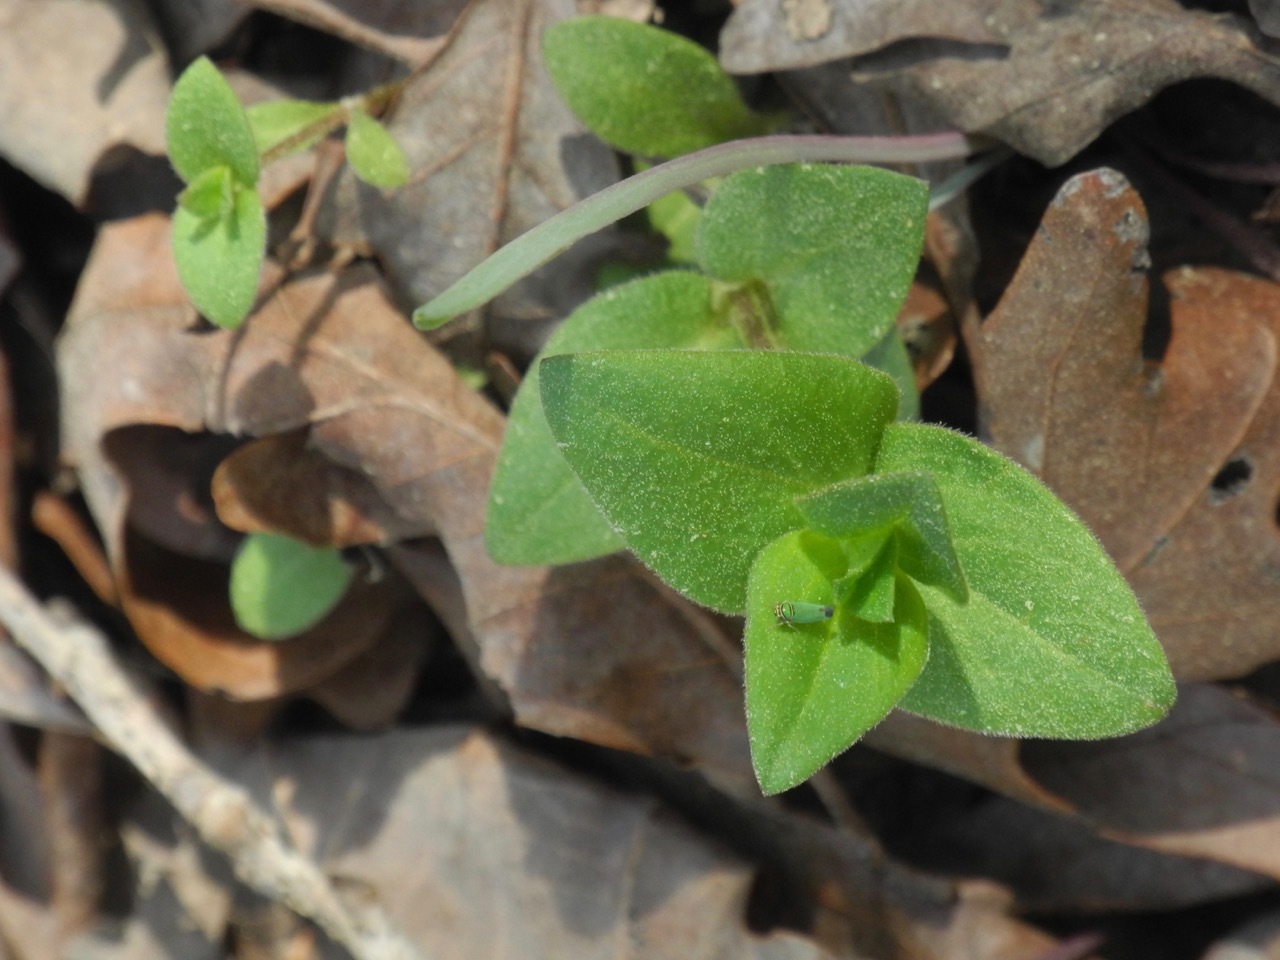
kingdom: Plantae
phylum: Tracheophyta
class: Magnoliopsida
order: Caryophyllales
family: Caryophyllaceae
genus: Stellaria
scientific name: Stellaria pubera
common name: Star chickweed
